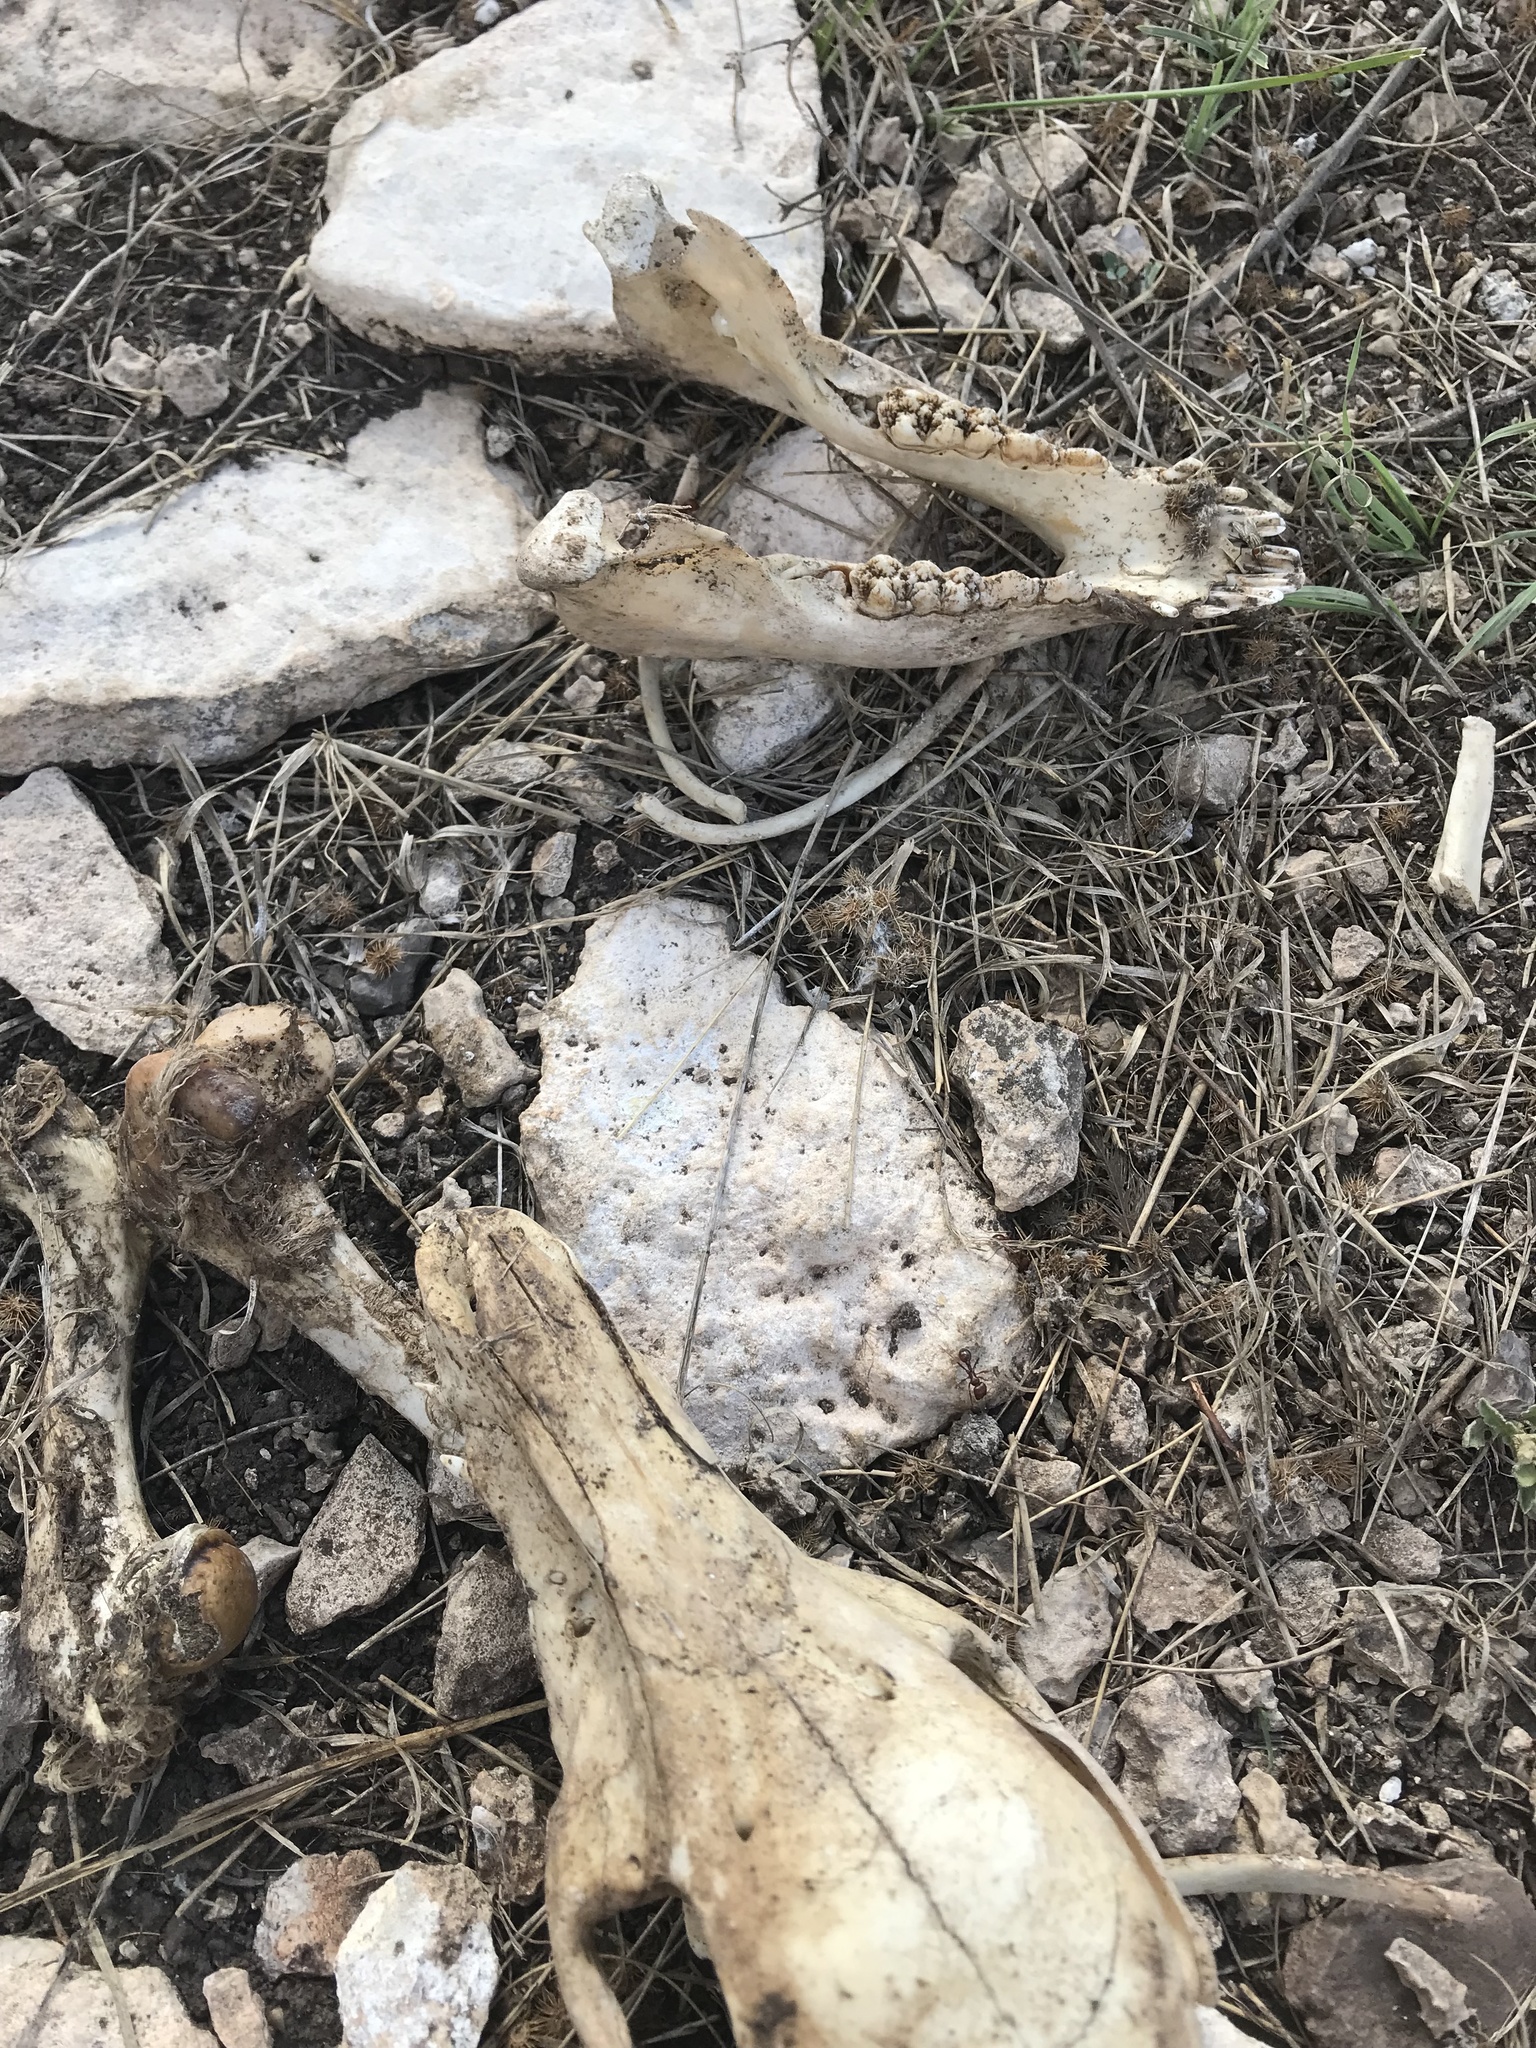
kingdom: Animalia
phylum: Chordata
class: Mammalia
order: Artiodactyla
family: Suidae
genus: Sus
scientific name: Sus scrofa
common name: Wild boar
